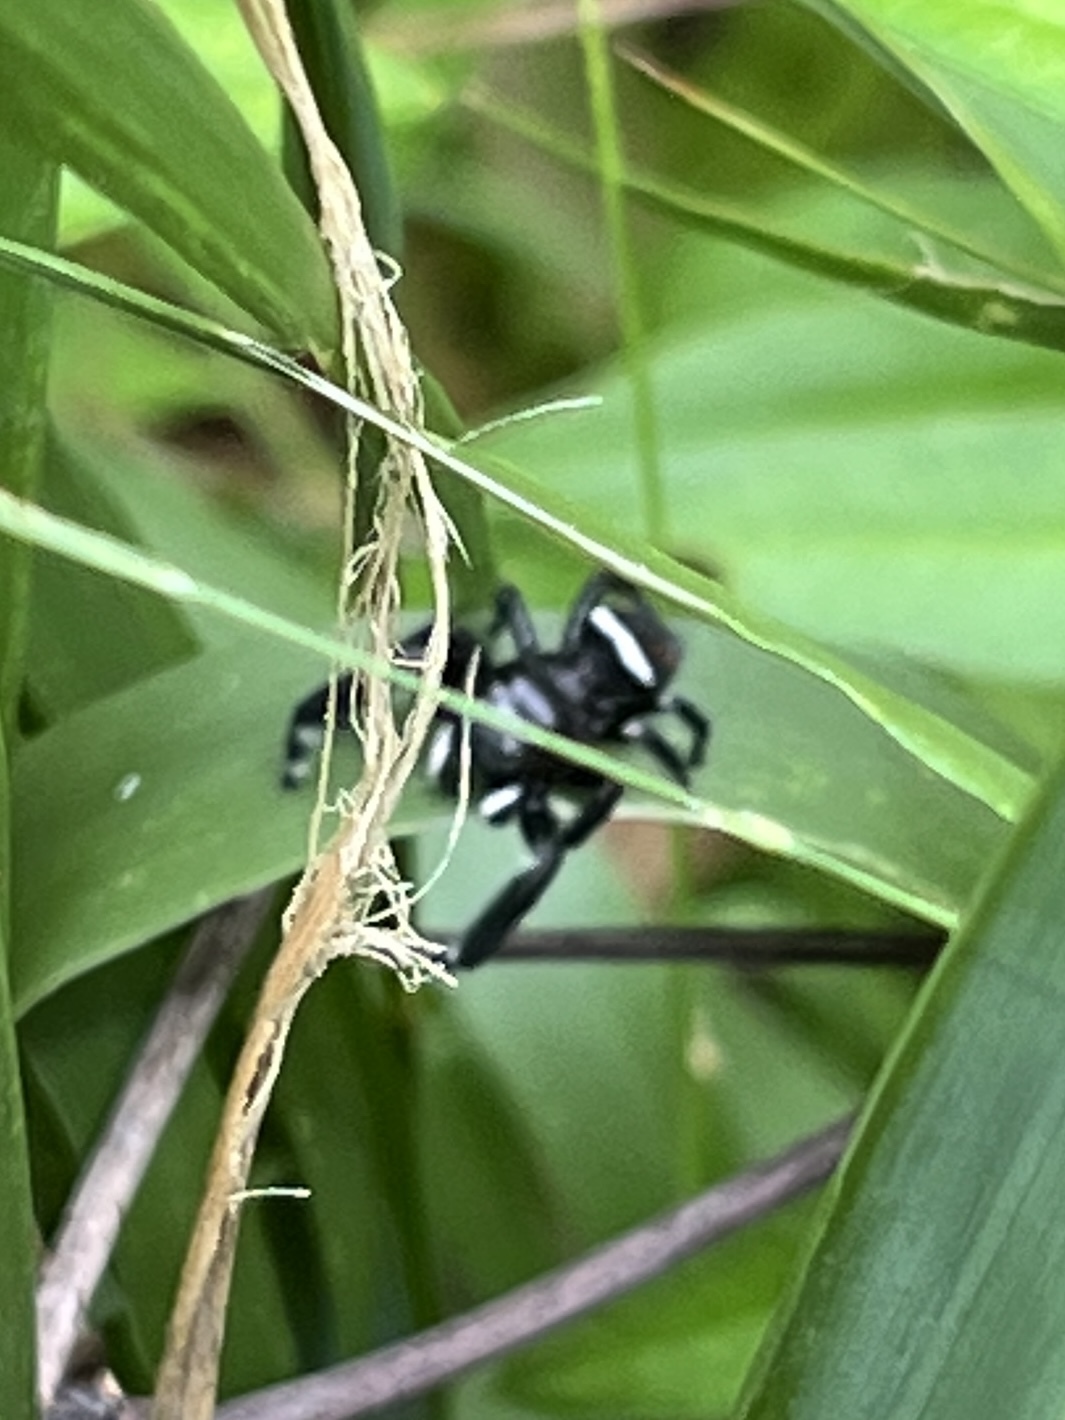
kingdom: Animalia
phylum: Arthropoda
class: Arachnida
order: Araneae
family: Salticidae
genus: Phidippus
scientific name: Phidippus clarus
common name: Brilliant jumping spider
